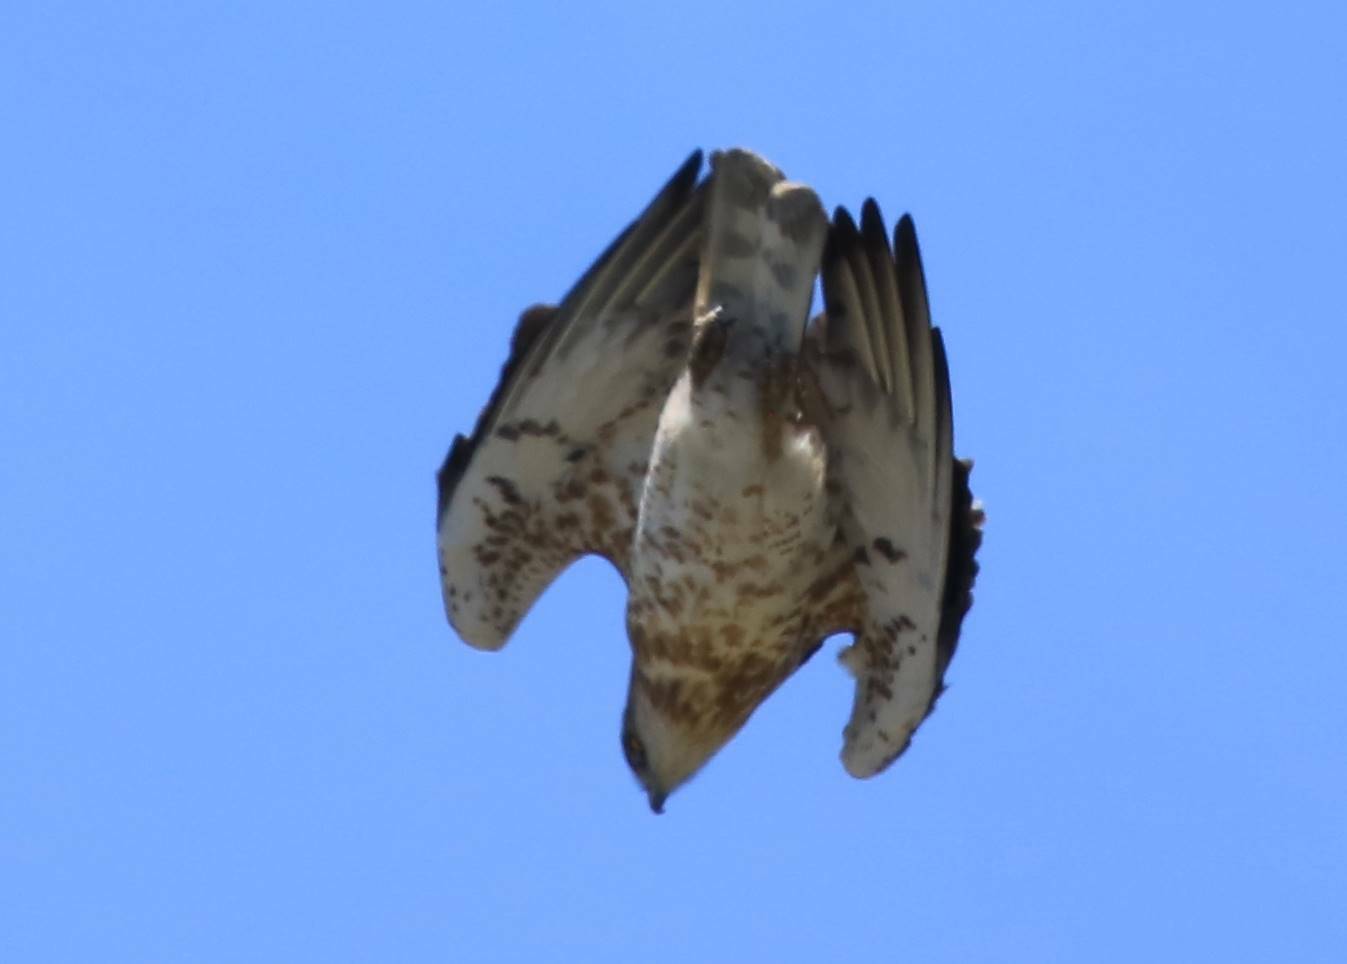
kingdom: Animalia
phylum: Chordata
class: Aves
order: Accipitriformes
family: Accipitridae
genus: Circaetus
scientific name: Circaetus gallicus
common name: Short-toed snake eagle
